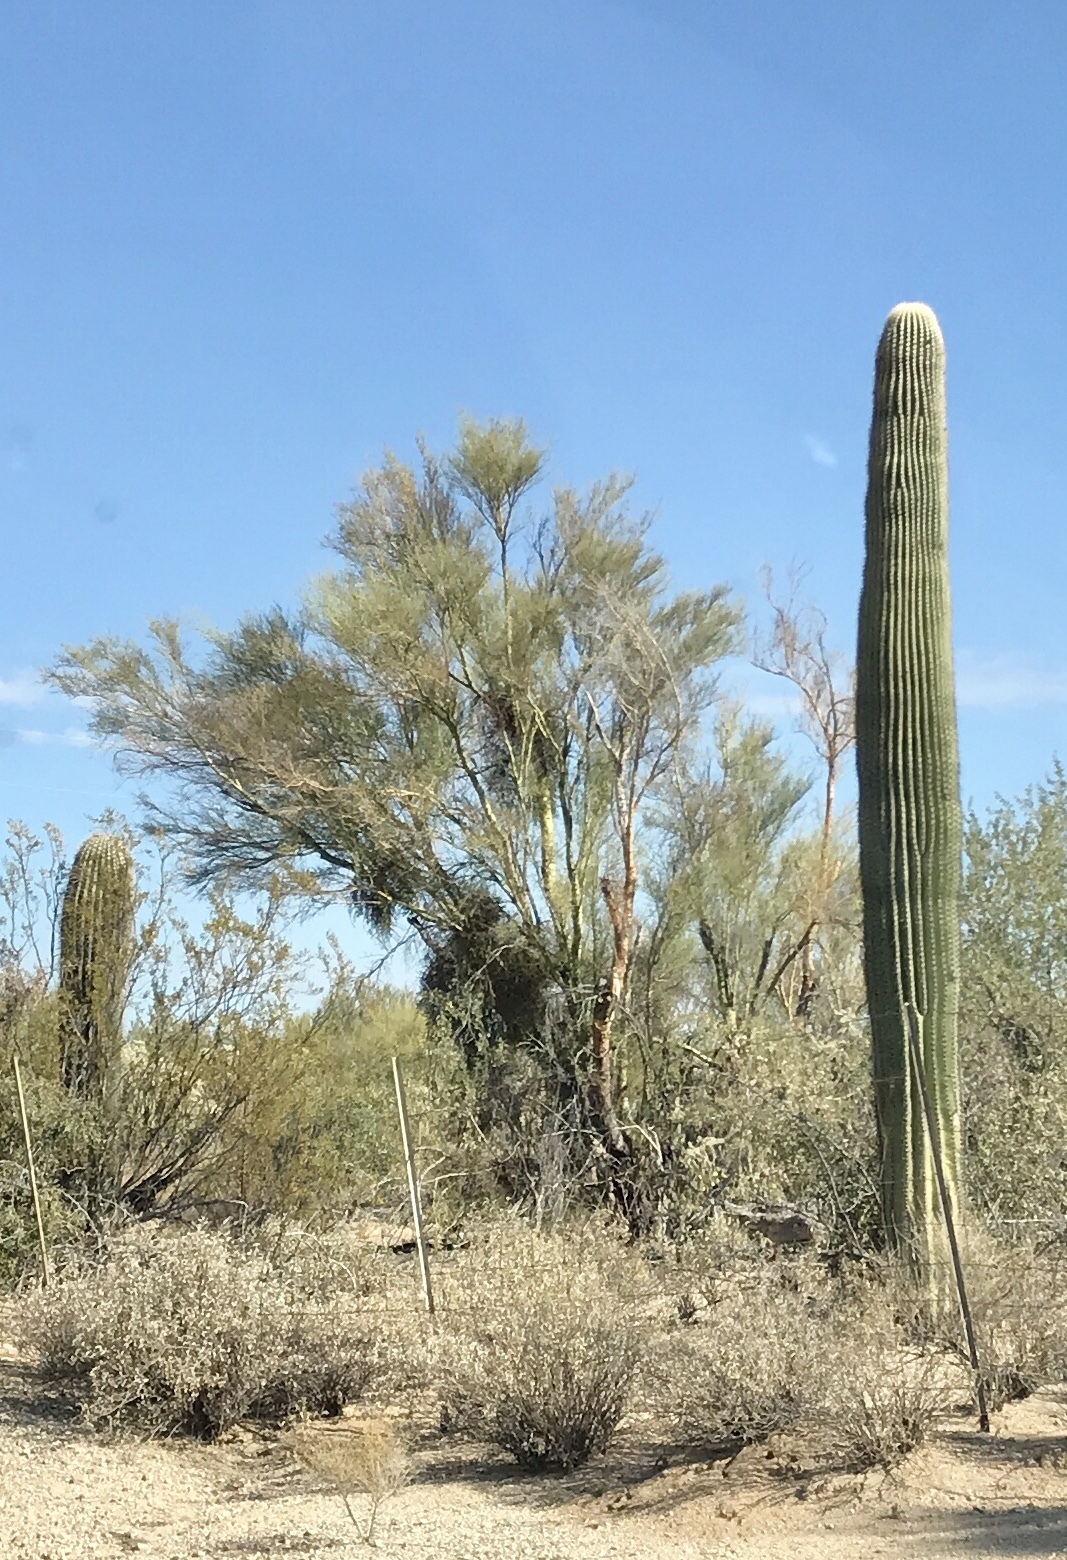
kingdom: Plantae
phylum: Tracheophyta
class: Magnoliopsida
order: Fabales
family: Fabaceae
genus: Parkinsonia
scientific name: Parkinsonia microphylla
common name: Yellow paloverde
